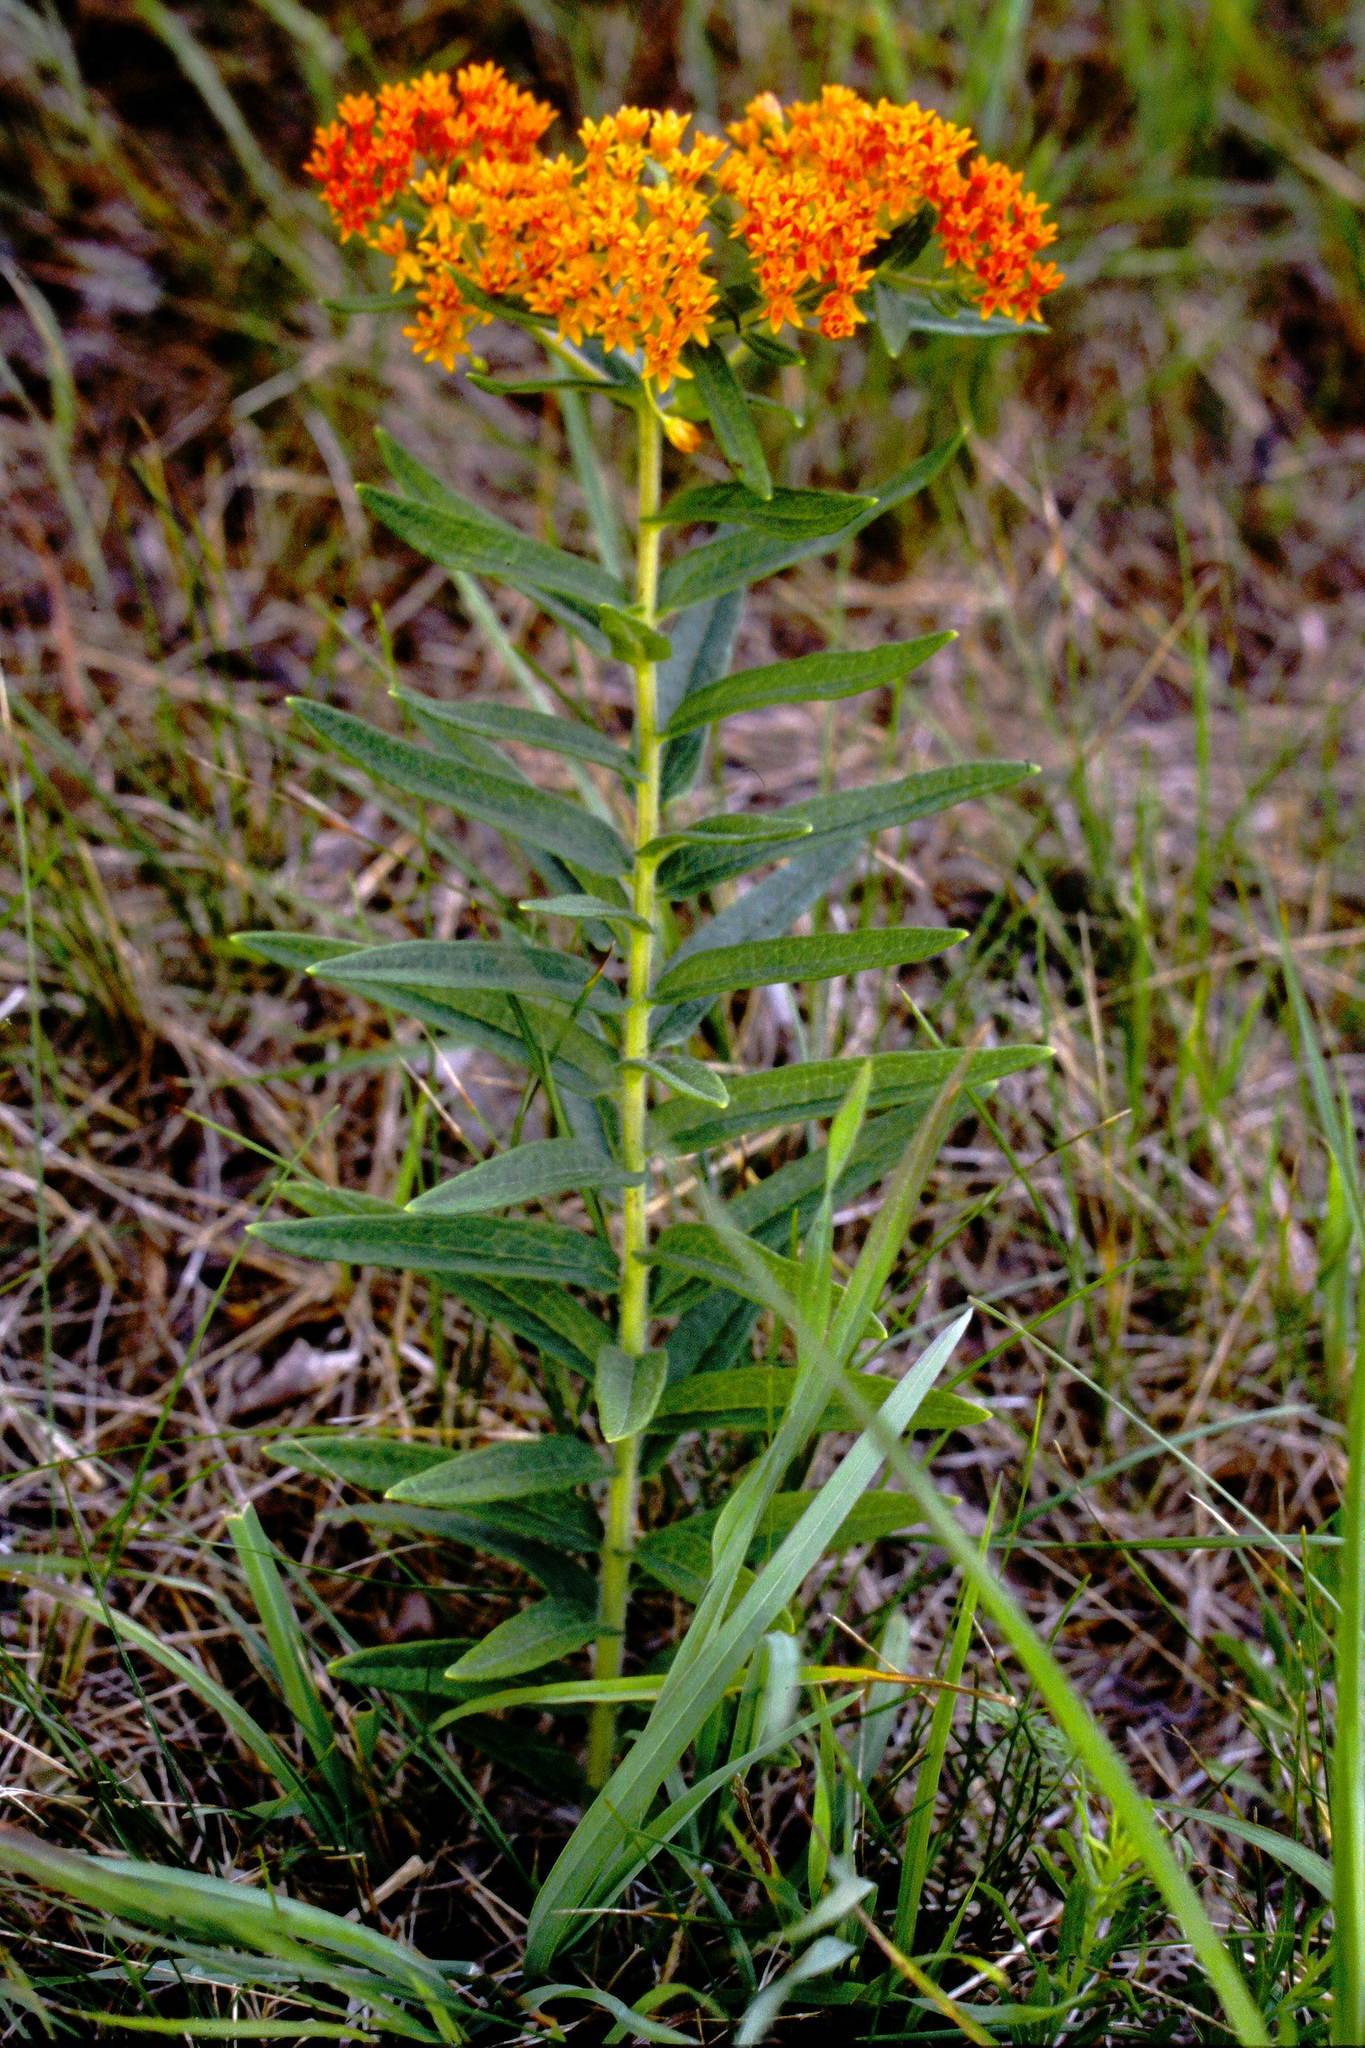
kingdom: Plantae
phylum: Tracheophyta
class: Magnoliopsida
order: Gentianales
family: Apocynaceae
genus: Asclepias
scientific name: Asclepias tuberosa
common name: Butterfly milkweed
